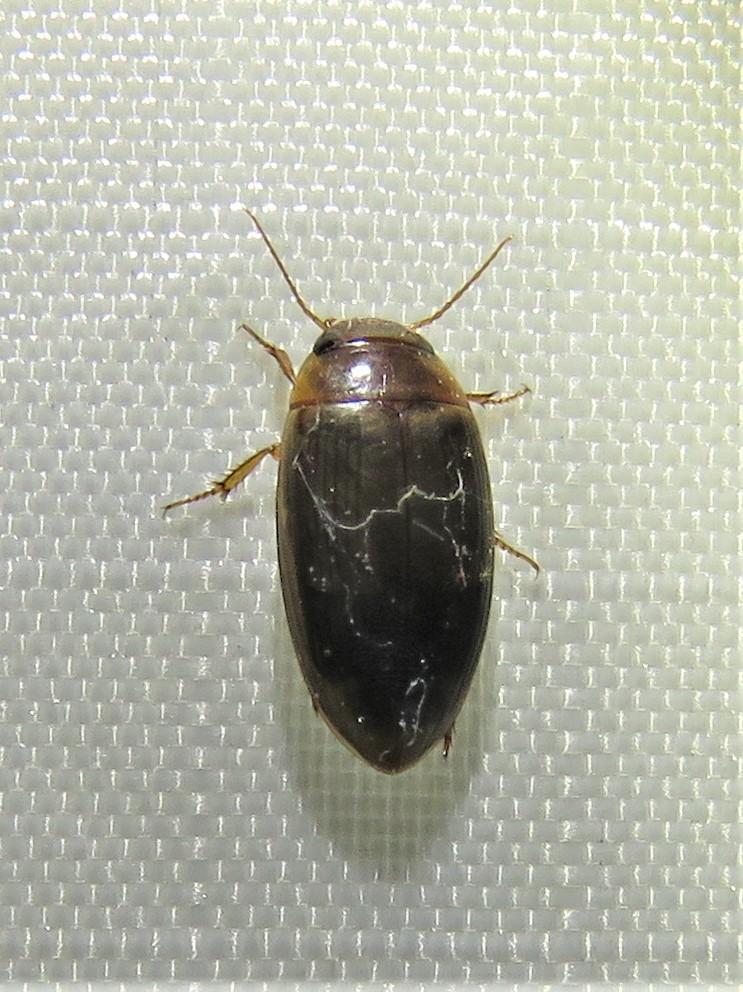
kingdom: Animalia
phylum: Arthropoda
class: Insecta
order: Coleoptera
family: Dytiscidae
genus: Copelatus
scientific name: Copelatus chevrolati
